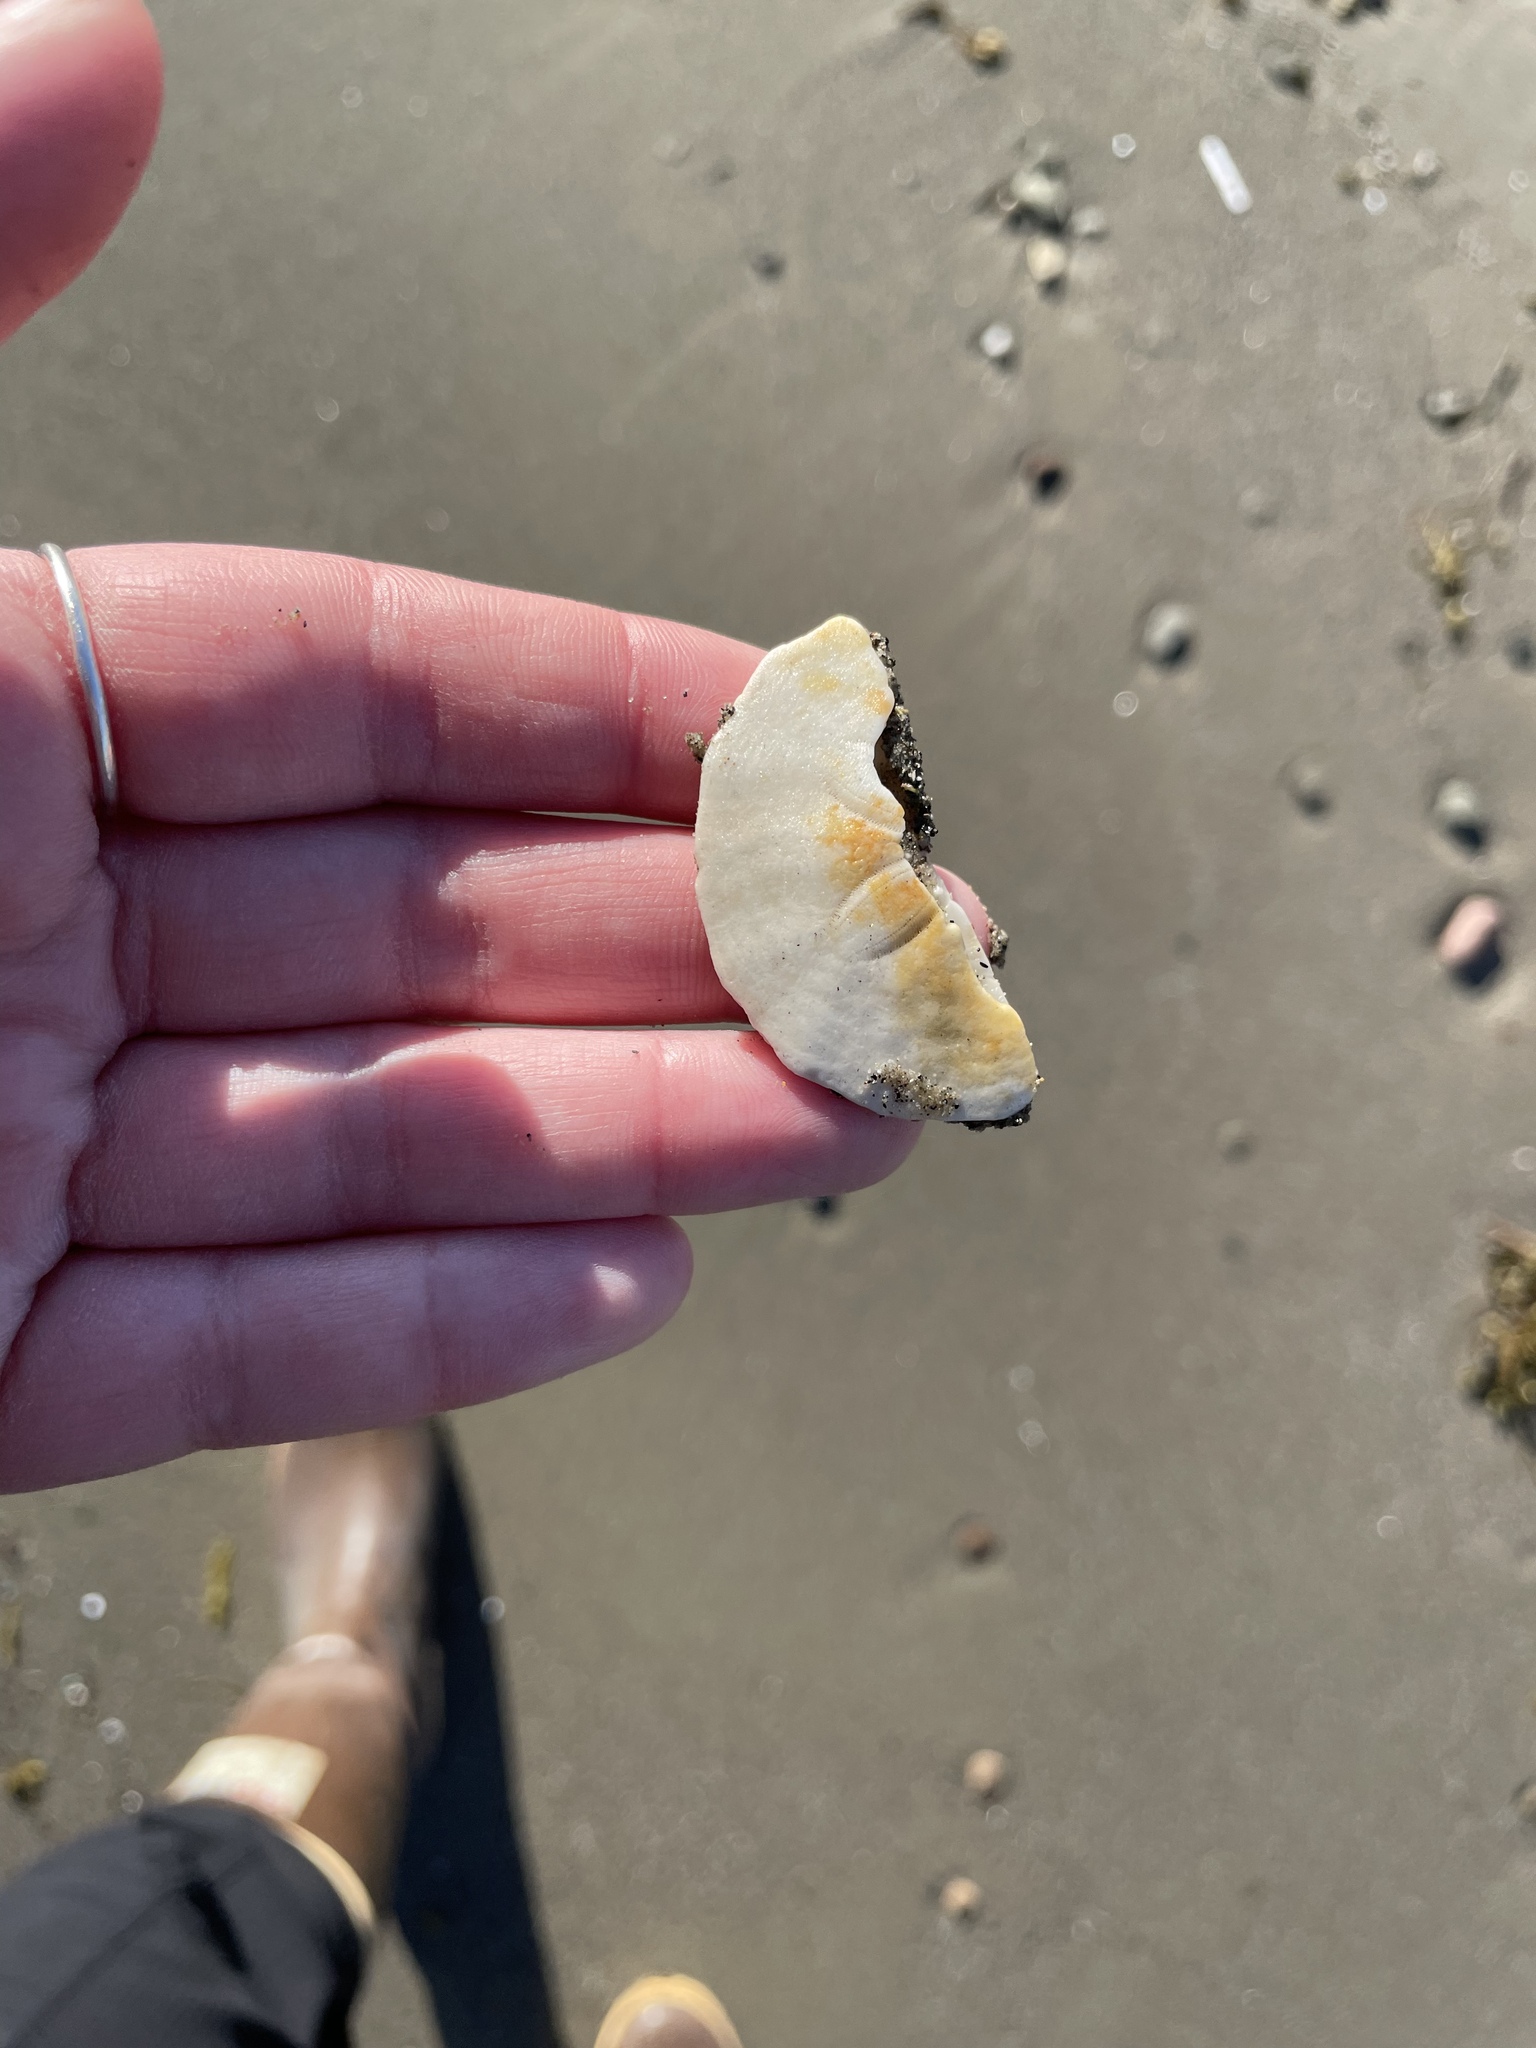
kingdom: Animalia
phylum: Echinodermata
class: Echinoidea
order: Echinolampadacea
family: Echinarachniidae
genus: Echinarachnius
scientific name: Echinarachnius parma
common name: Common sand dollar
